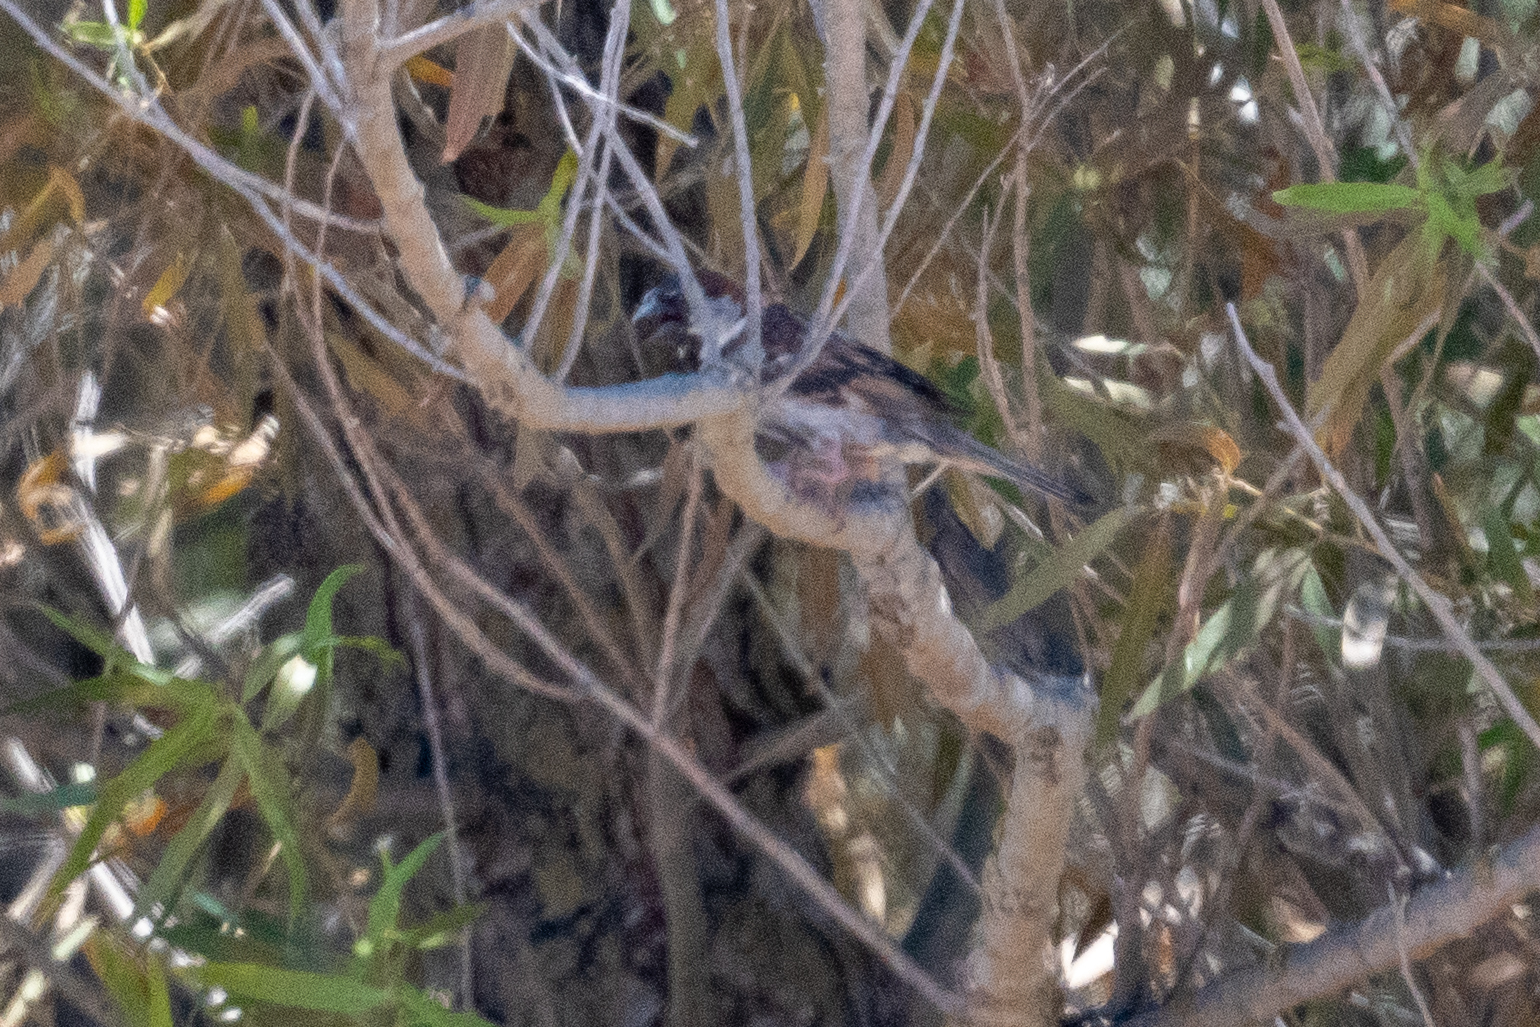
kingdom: Animalia
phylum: Chordata
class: Aves
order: Passeriformes
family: Passeridae
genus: Passer
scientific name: Passer domesticus
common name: House sparrow
